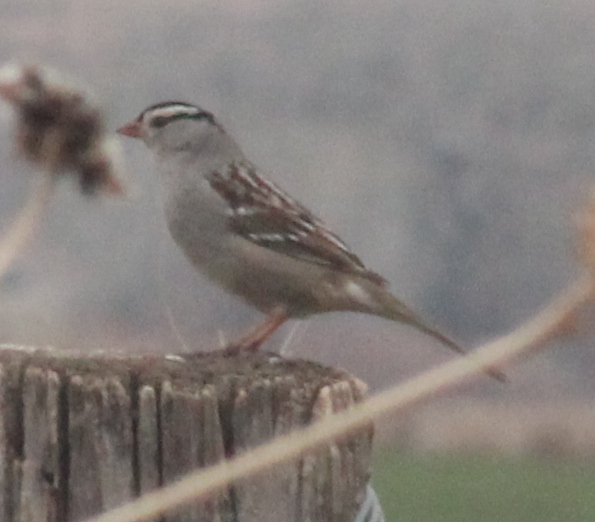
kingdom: Animalia
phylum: Chordata
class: Aves
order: Passeriformes
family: Passerellidae
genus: Zonotrichia
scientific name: Zonotrichia leucophrys
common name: White-crowned sparrow
